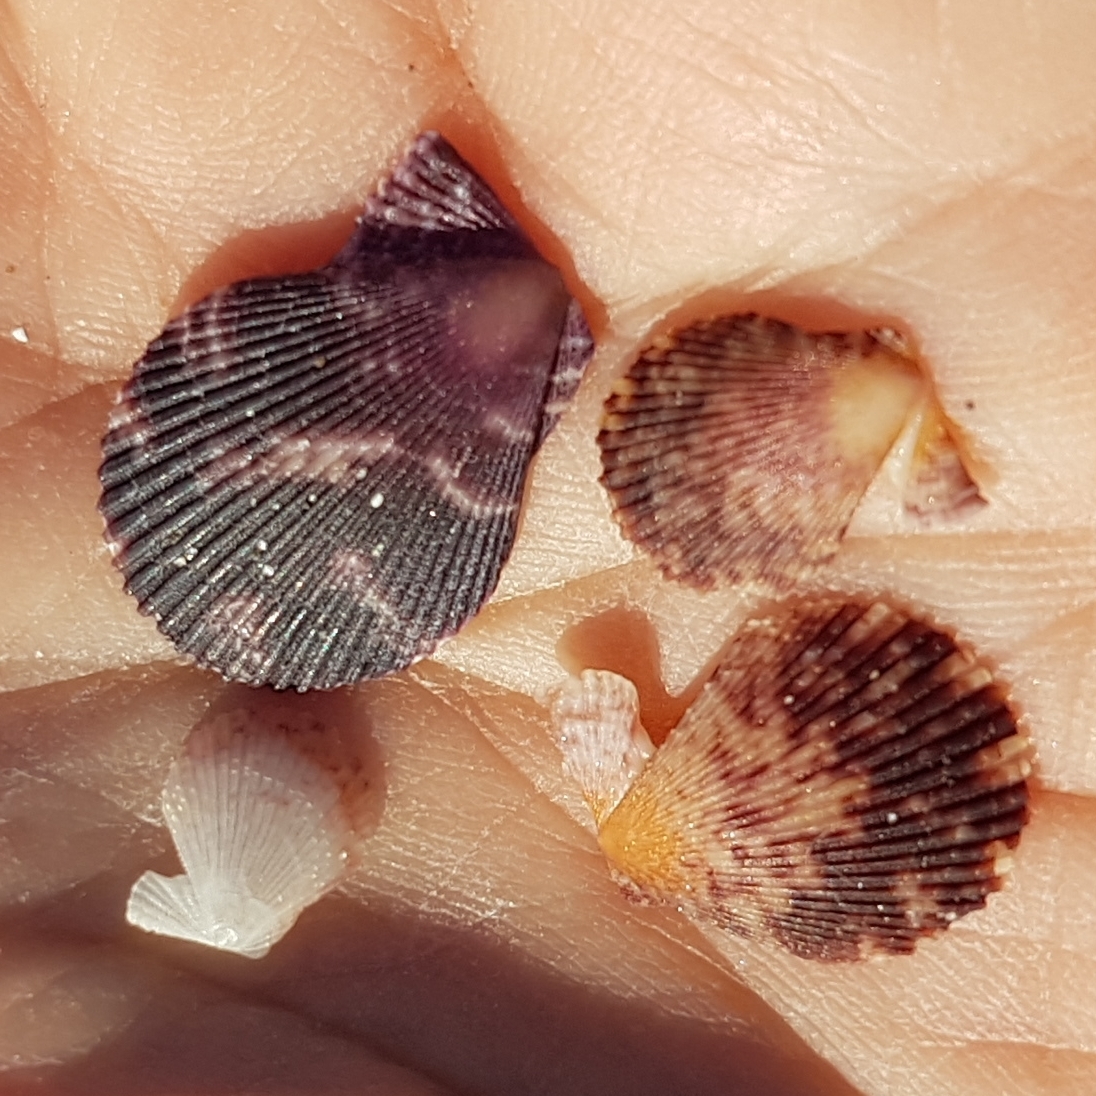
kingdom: Animalia
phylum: Mollusca
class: Bivalvia
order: Pectinida
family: Pectinidae
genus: Mimachlamys
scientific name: Mimachlamys varia
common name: Variegated scallop
